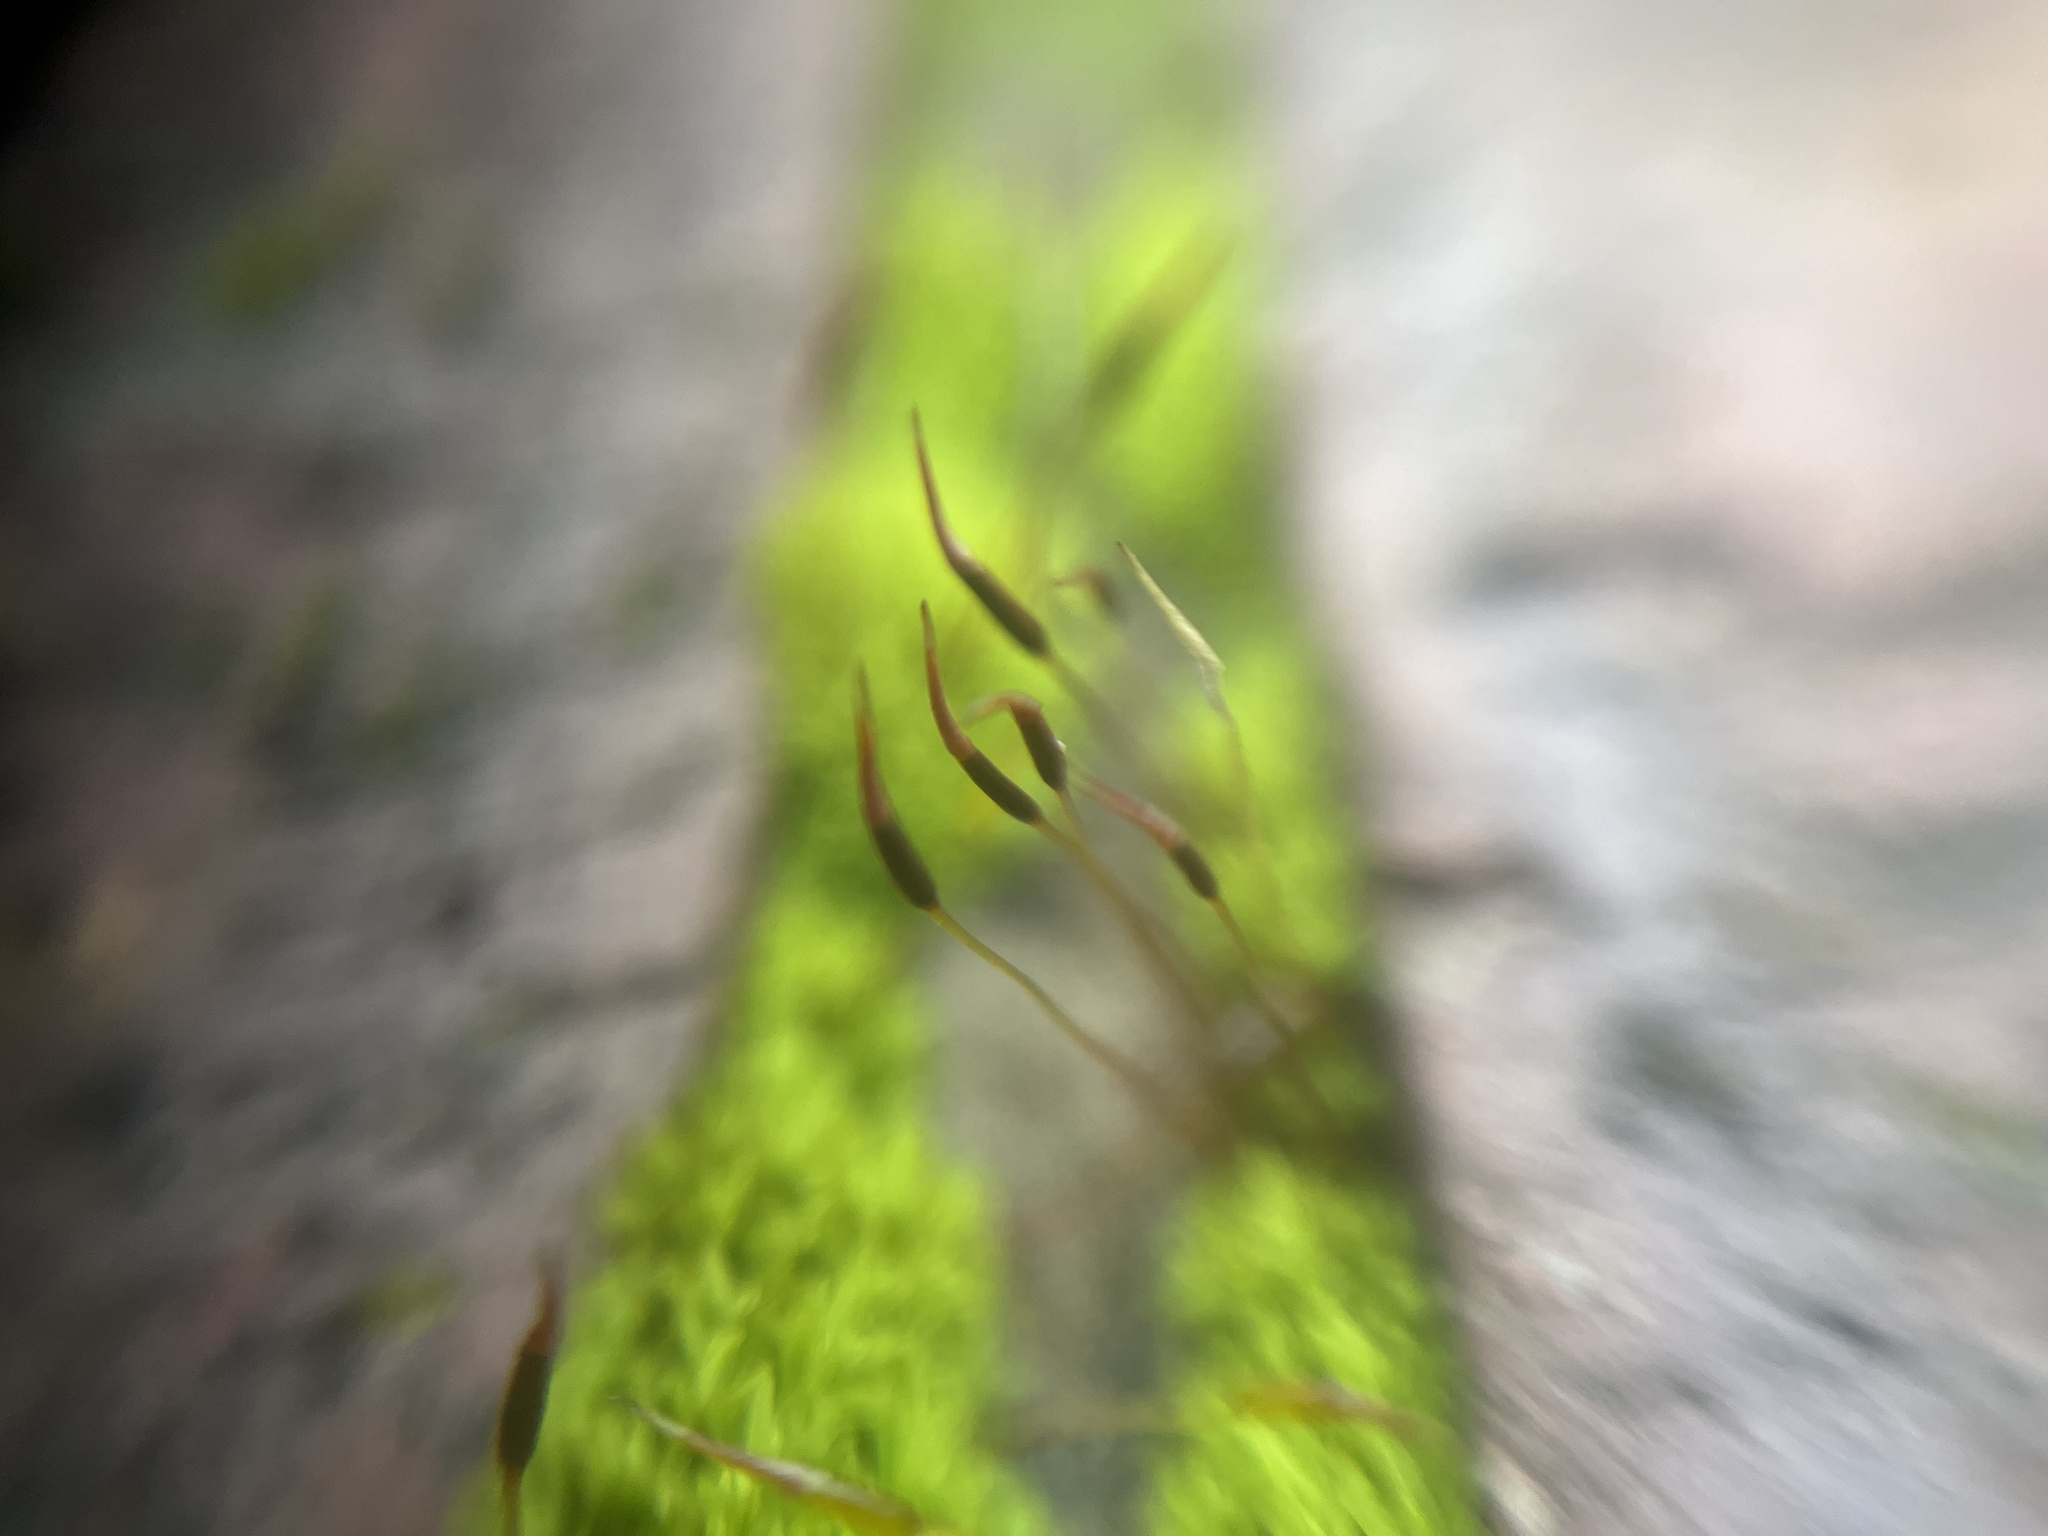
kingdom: Plantae
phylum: Bryophyta
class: Bryopsida
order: Pottiales
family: Pottiaceae
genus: Tortula
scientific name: Tortula muralis
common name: Wall screw-moss
